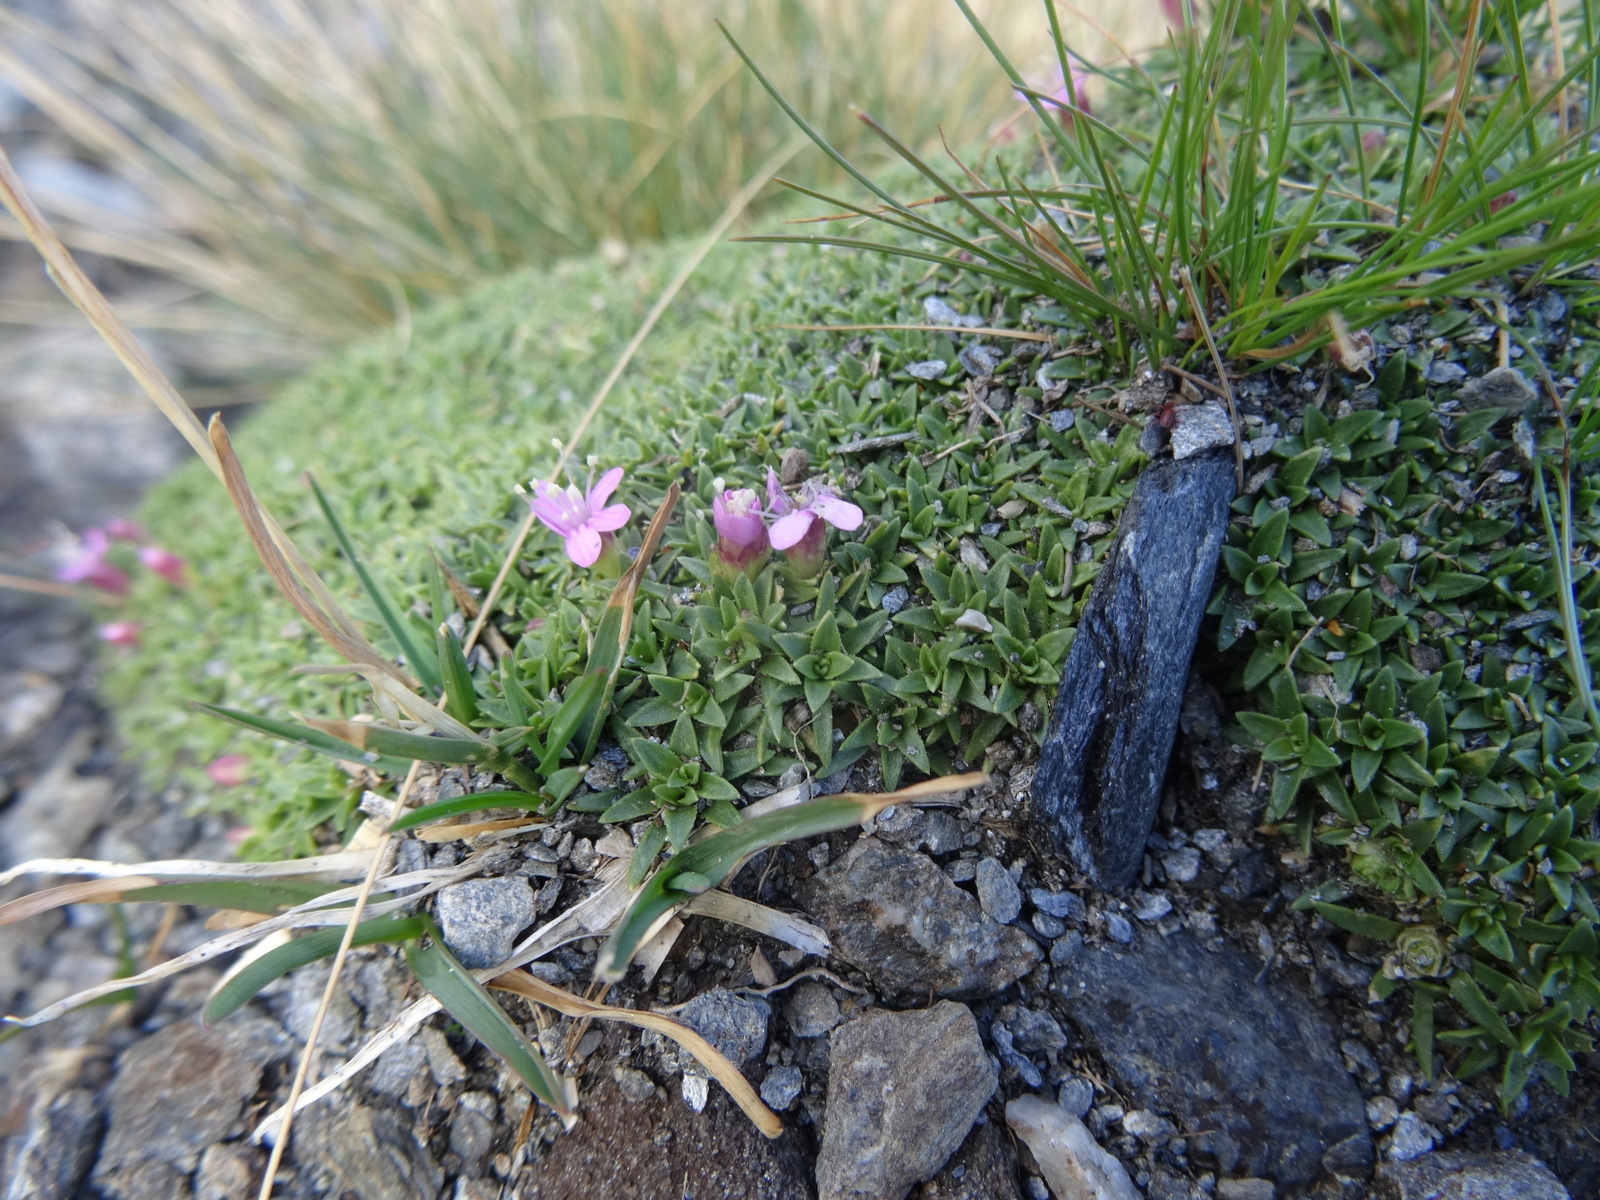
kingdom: Plantae
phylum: Tracheophyta
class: Magnoliopsida
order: Caryophyllales
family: Caryophyllaceae
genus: Silene
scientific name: Silene acaulis
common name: Moss campion
